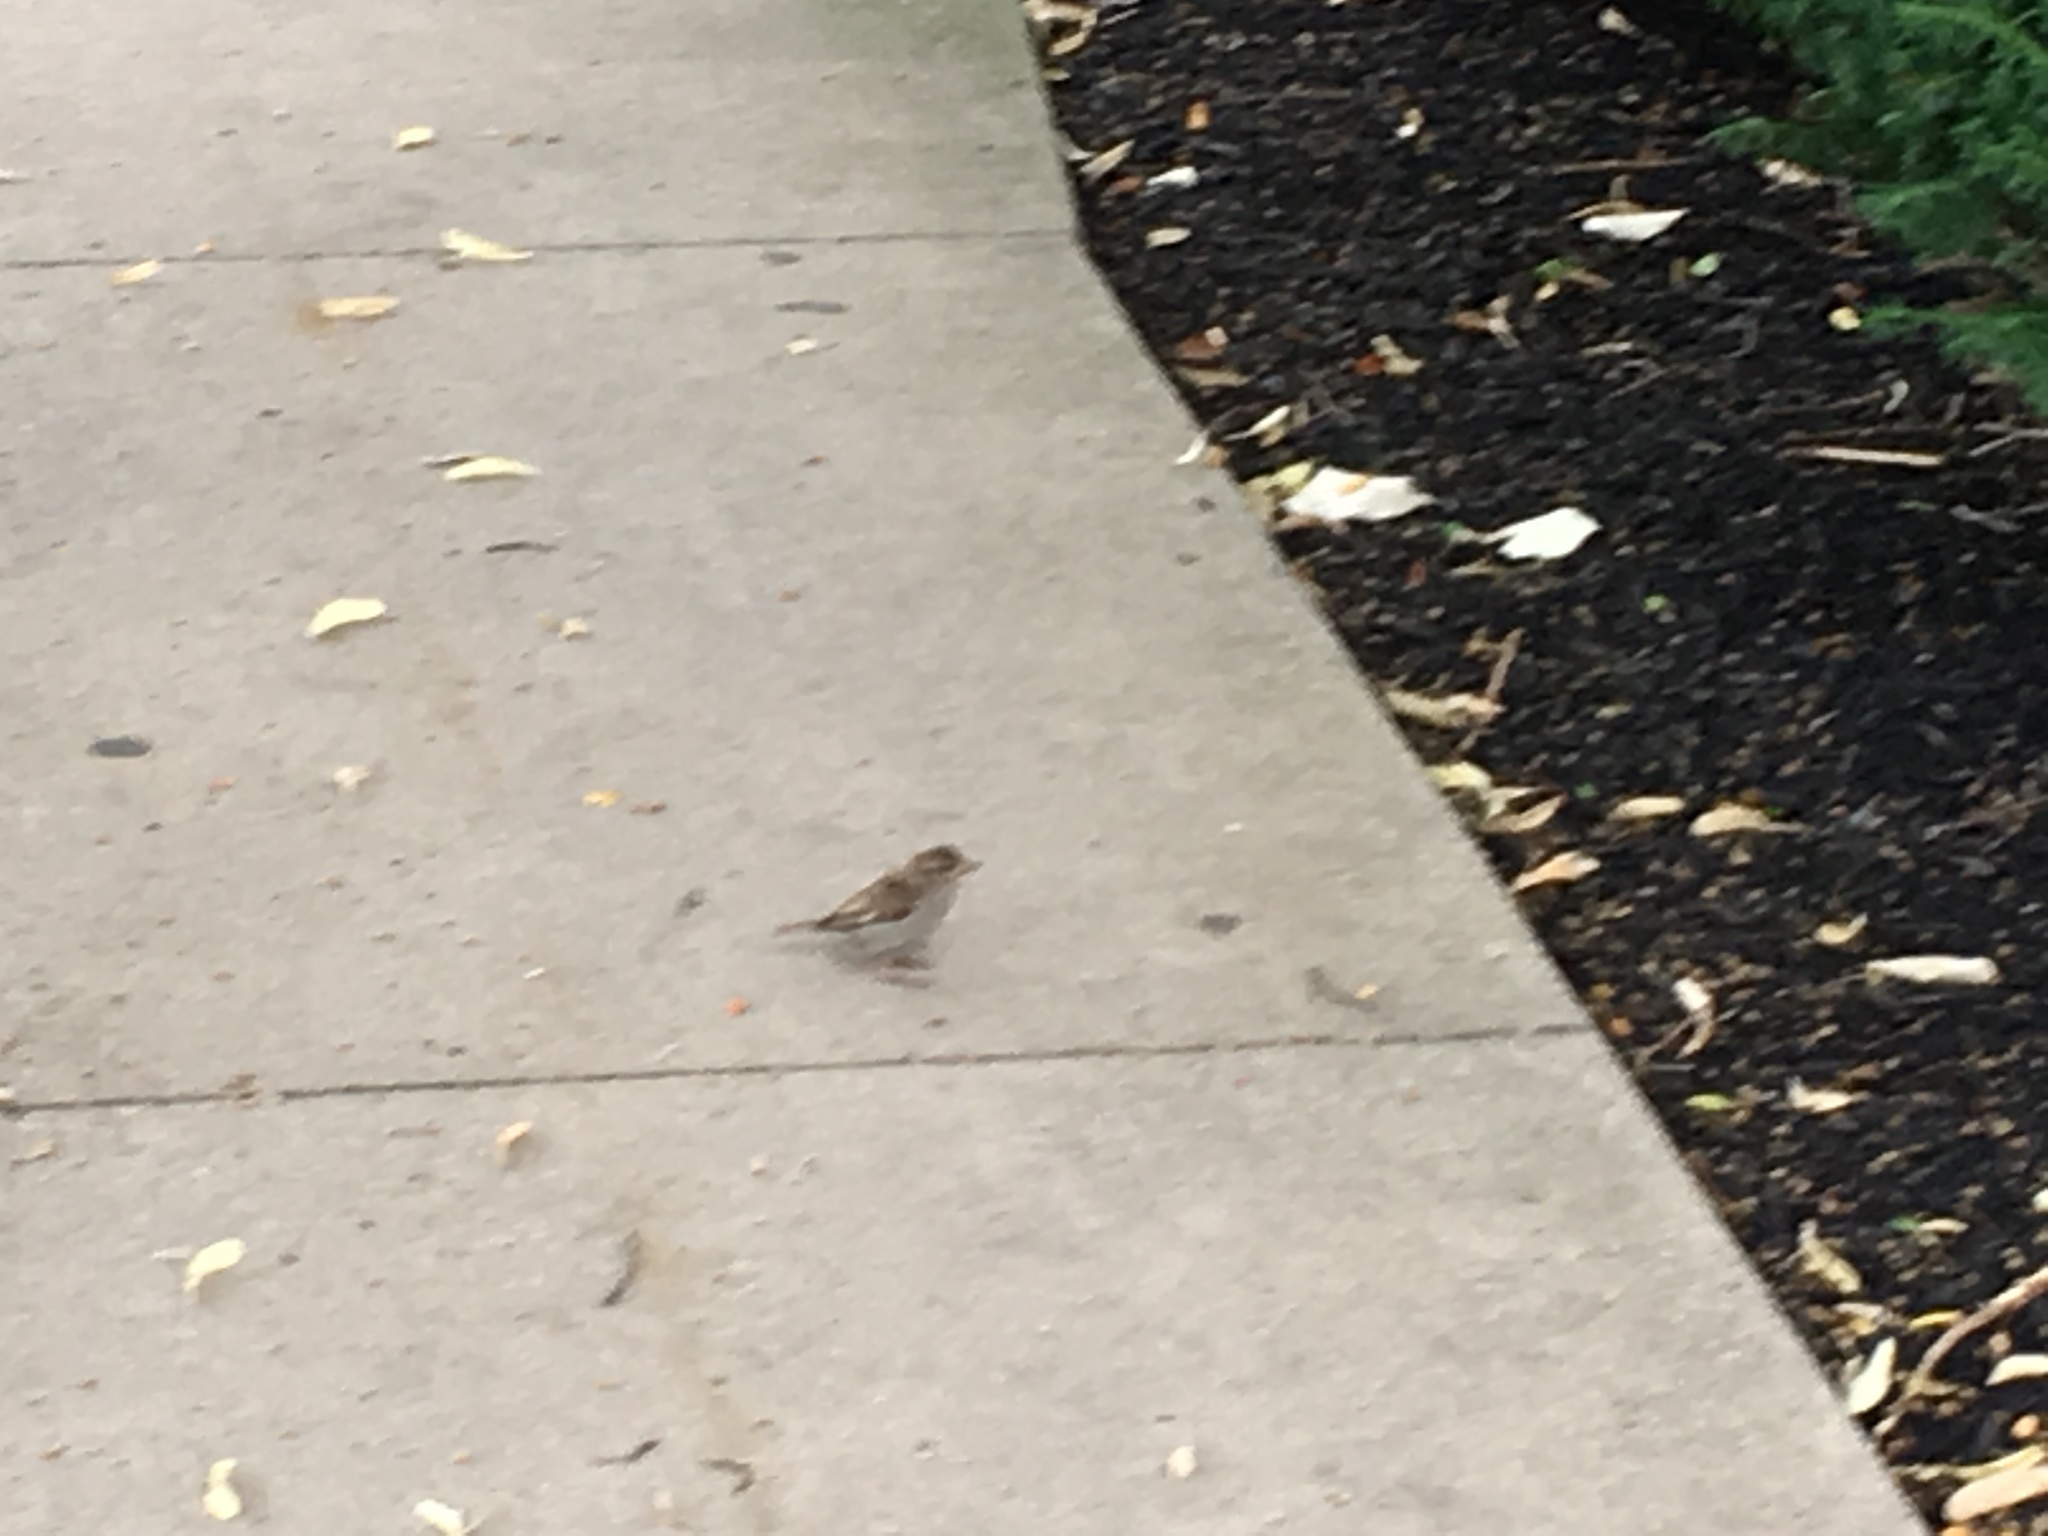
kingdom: Animalia
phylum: Chordata
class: Aves
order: Passeriformes
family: Passeridae
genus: Passer
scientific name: Passer domesticus
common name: House sparrow
